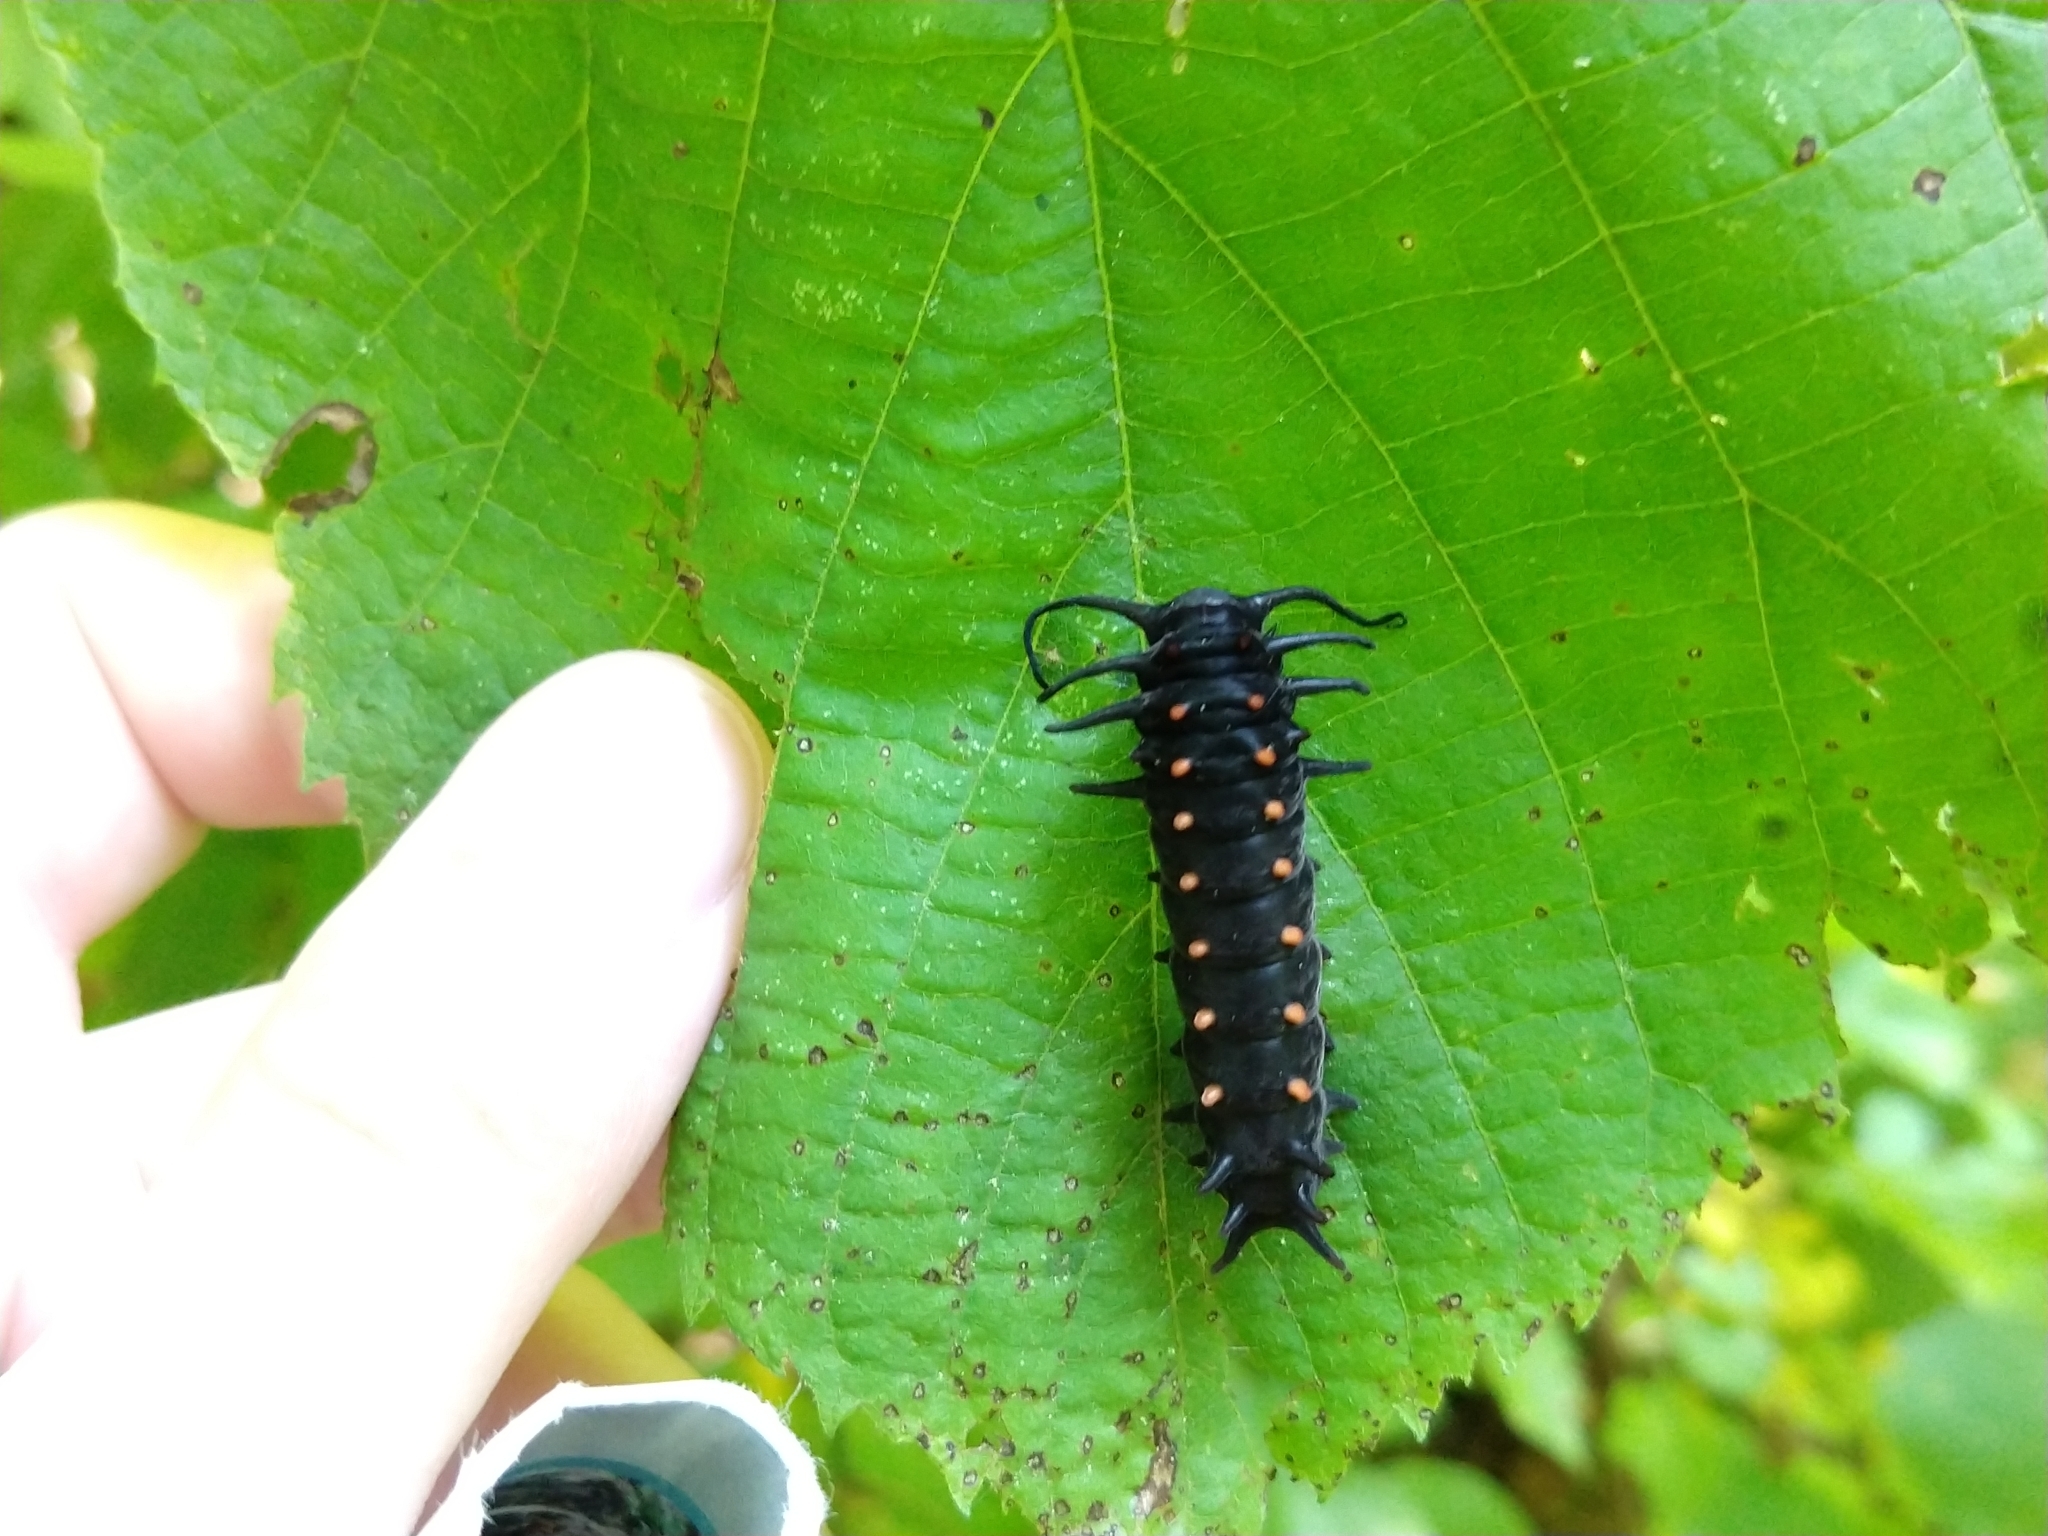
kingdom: Animalia
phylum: Arthropoda
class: Insecta
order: Lepidoptera
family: Papilionidae
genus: Battus
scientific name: Battus philenor
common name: Pipevine swallowtail
